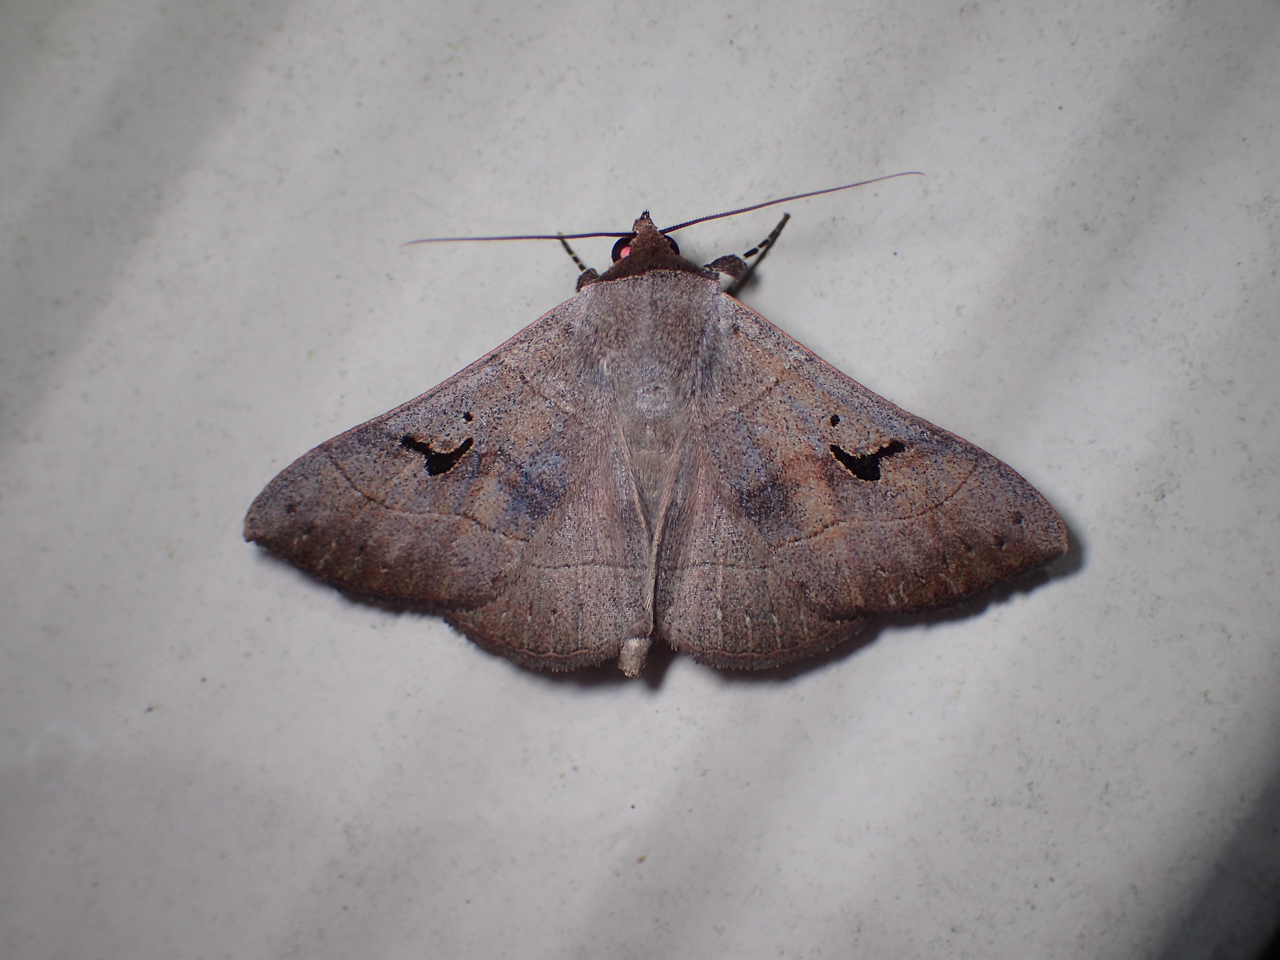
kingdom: Animalia
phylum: Arthropoda
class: Insecta
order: Lepidoptera
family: Erebidae
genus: Panopoda
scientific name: Panopoda carneicosta
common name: Brown panopoda moth
